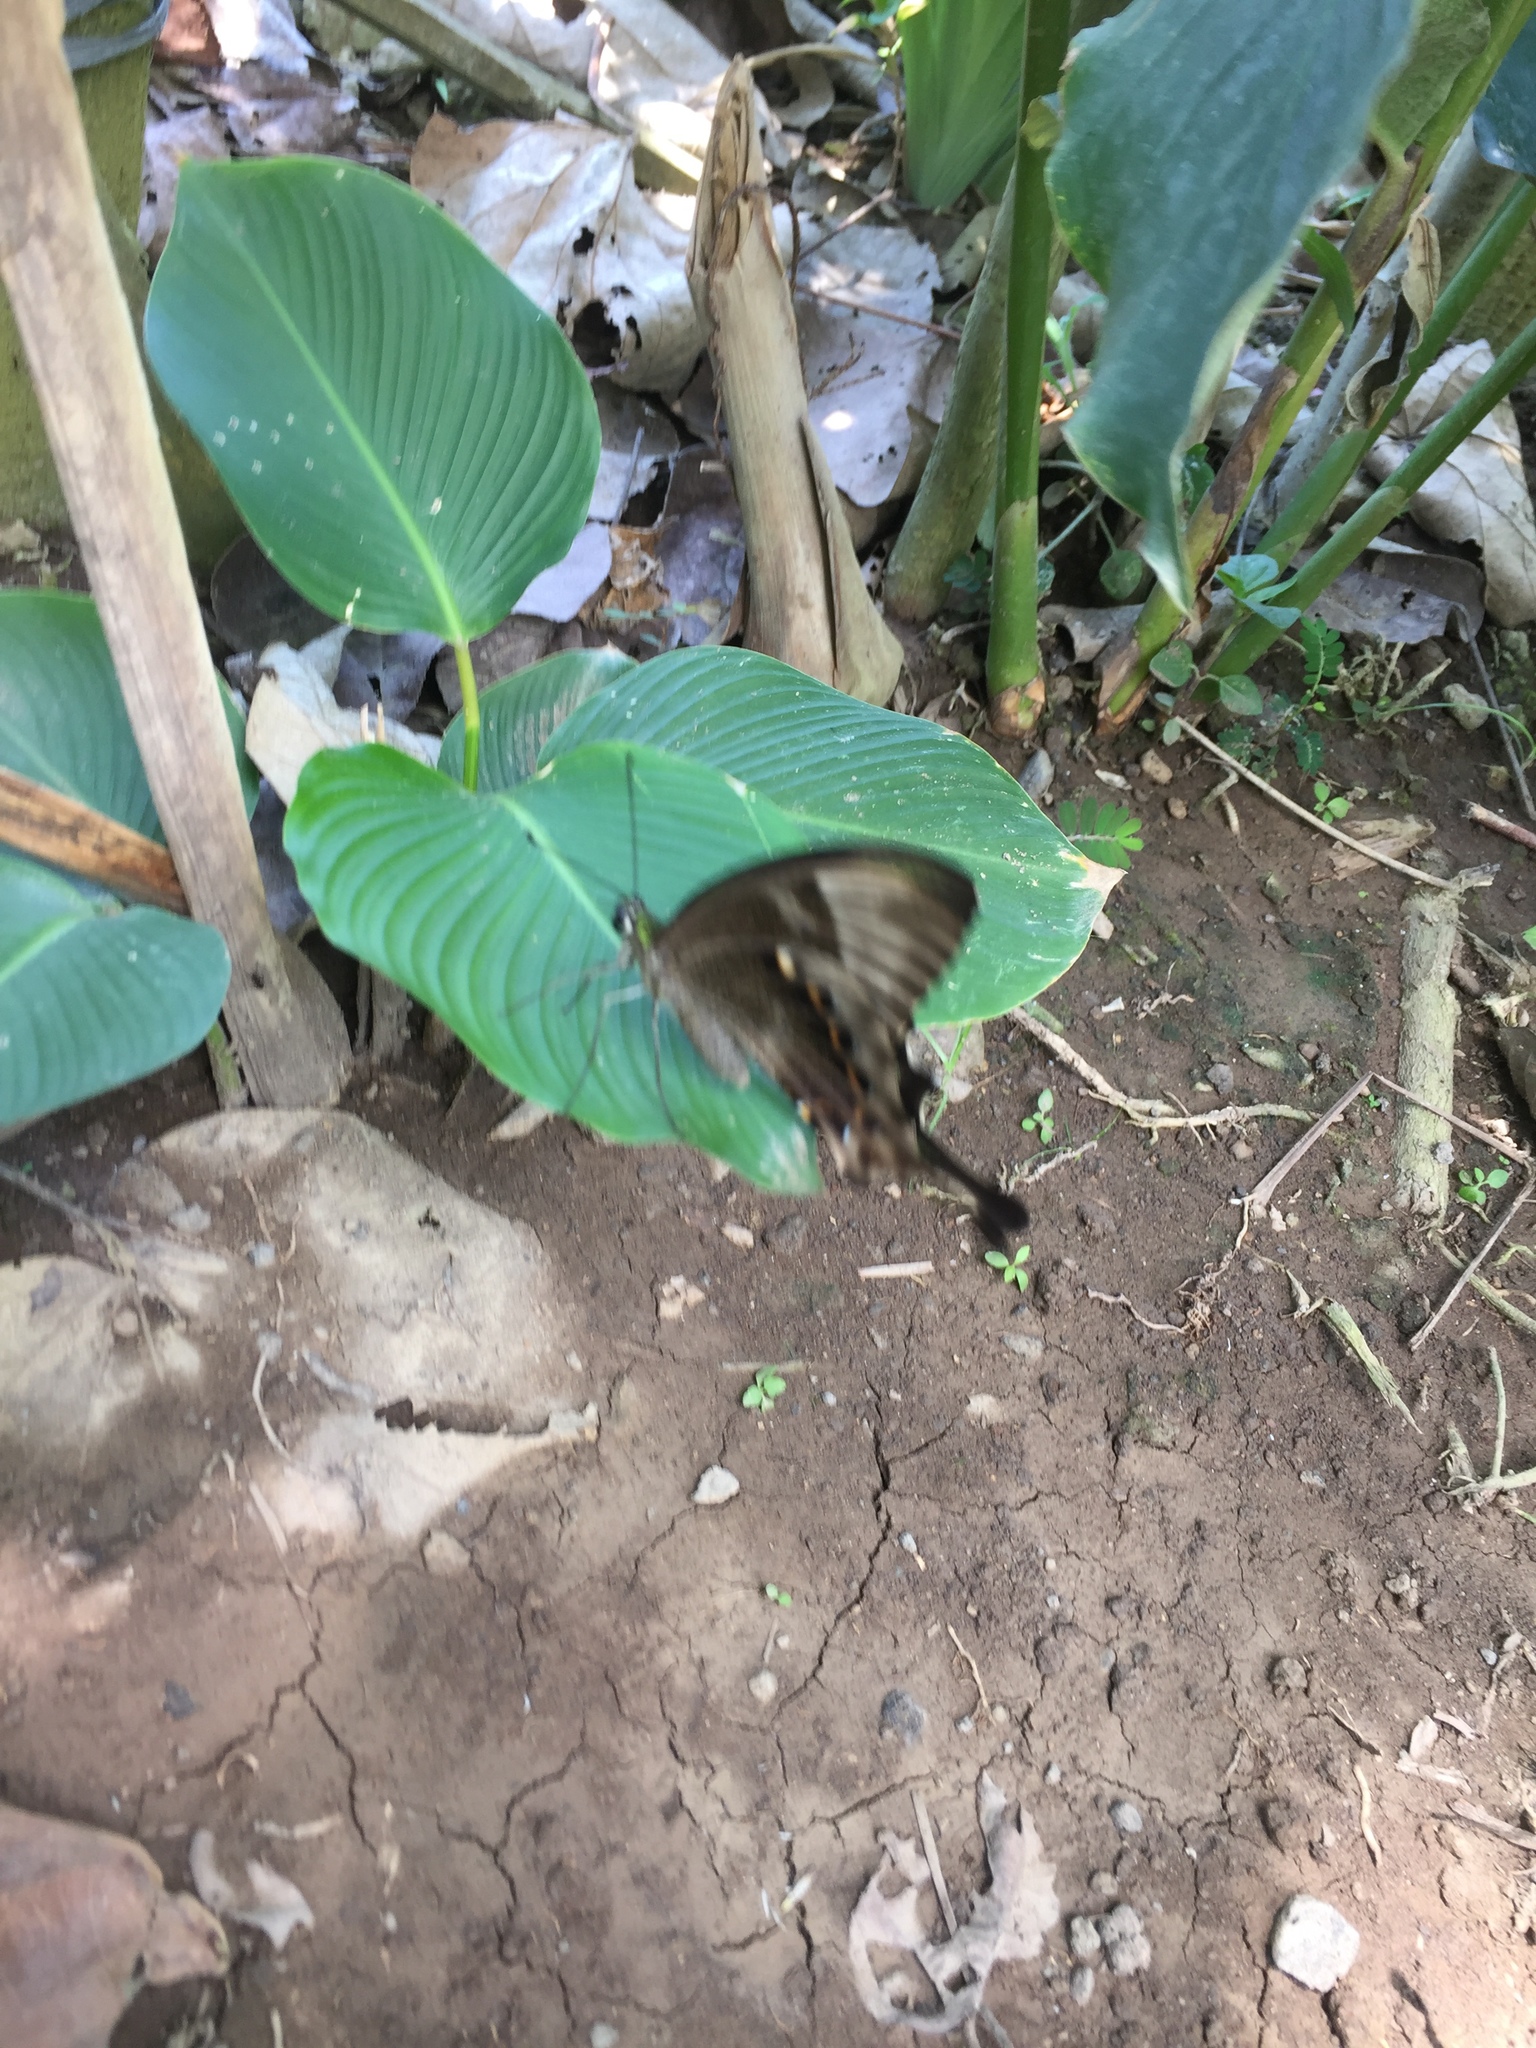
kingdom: Animalia
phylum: Arthropoda
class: Insecta
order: Lepidoptera
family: Papilionidae
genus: Papilio
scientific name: Papilio peranthus
